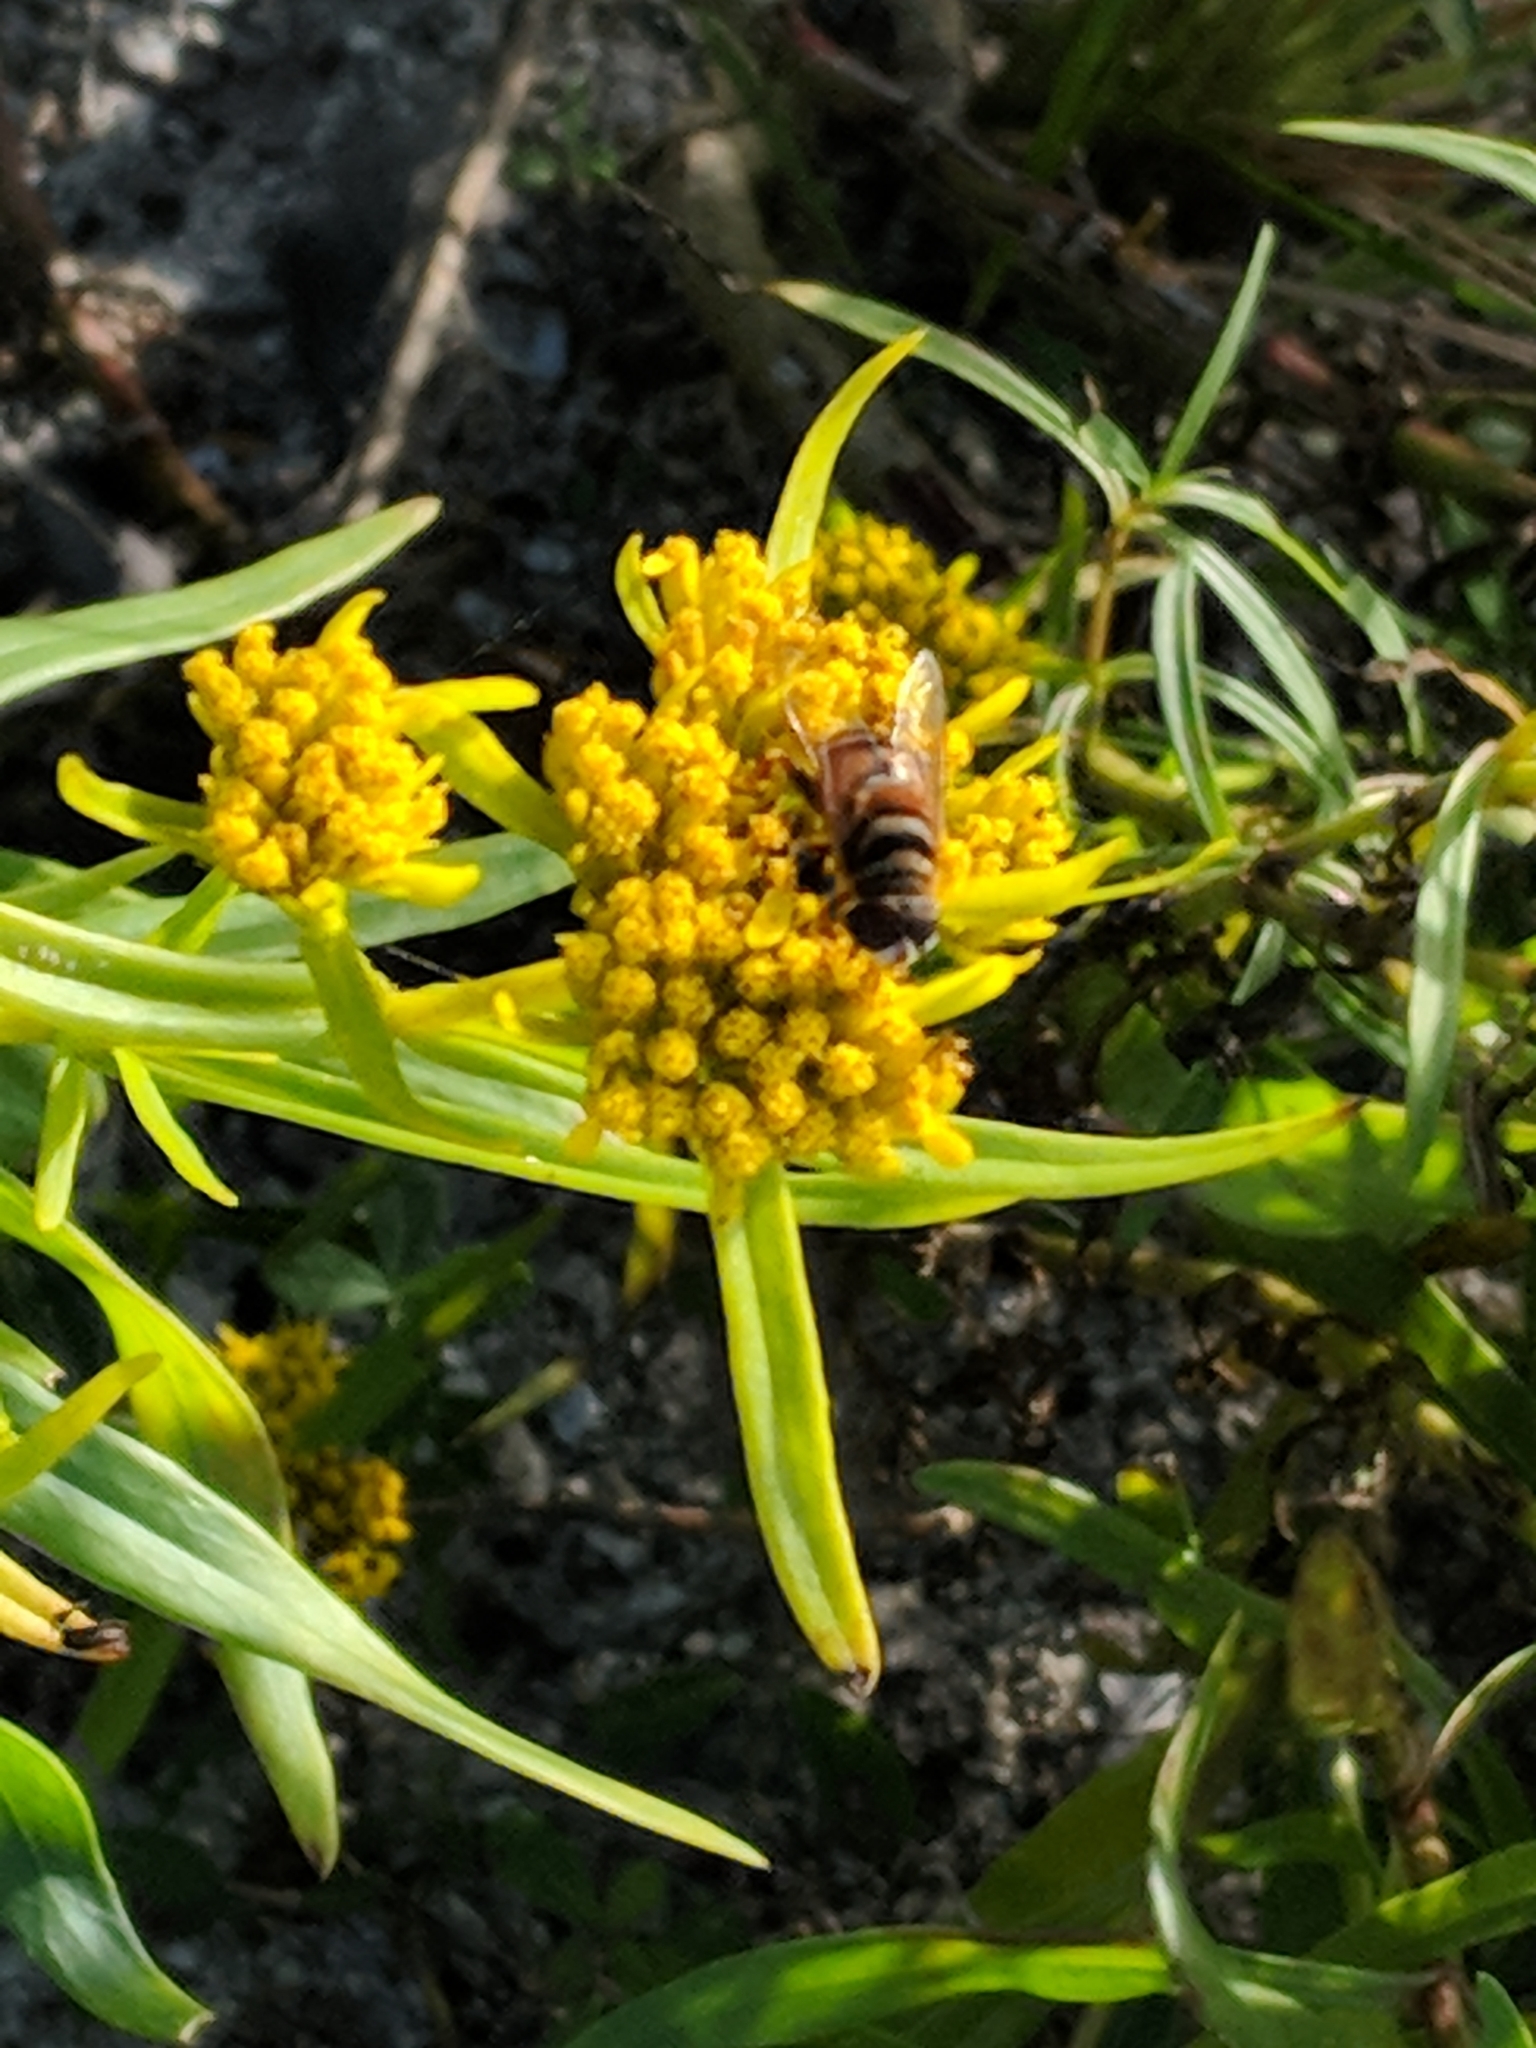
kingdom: Animalia
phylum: Arthropoda
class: Insecta
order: Diptera
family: Syrphidae
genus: Palpada
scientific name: Palpada vinetorum
